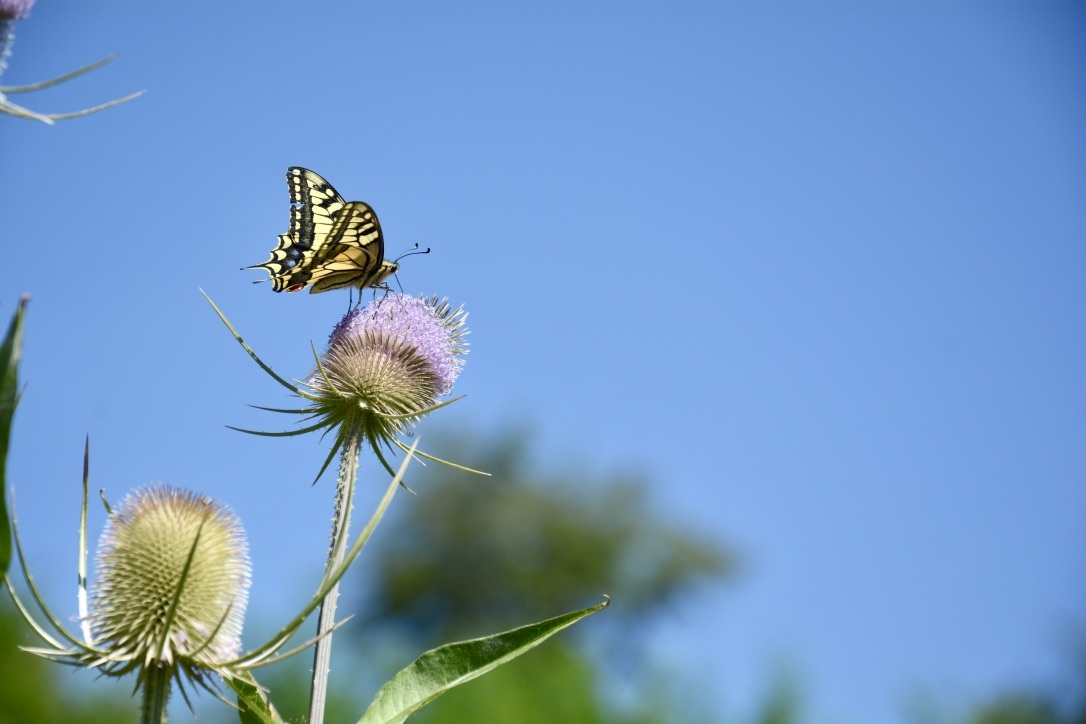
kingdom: Animalia
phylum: Arthropoda
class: Insecta
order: Lepidoptera
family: Papilionidae
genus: Papilio
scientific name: Papilio machaon
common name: Swallowtail
